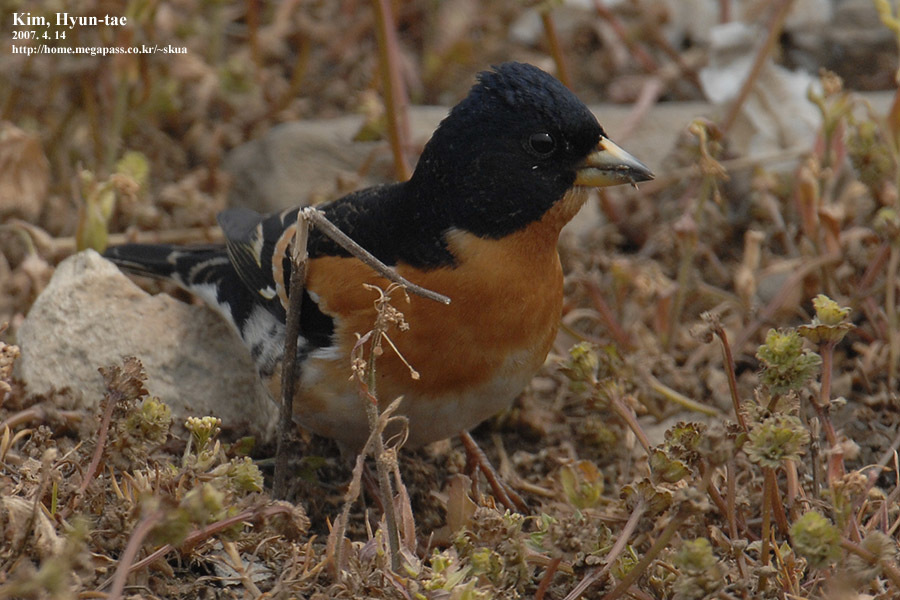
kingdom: Animalia
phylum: Chordata
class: Aves
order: Passeriformes
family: Fringillidae
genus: Fringilla
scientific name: Fringilla montifringilla
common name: Brambling
